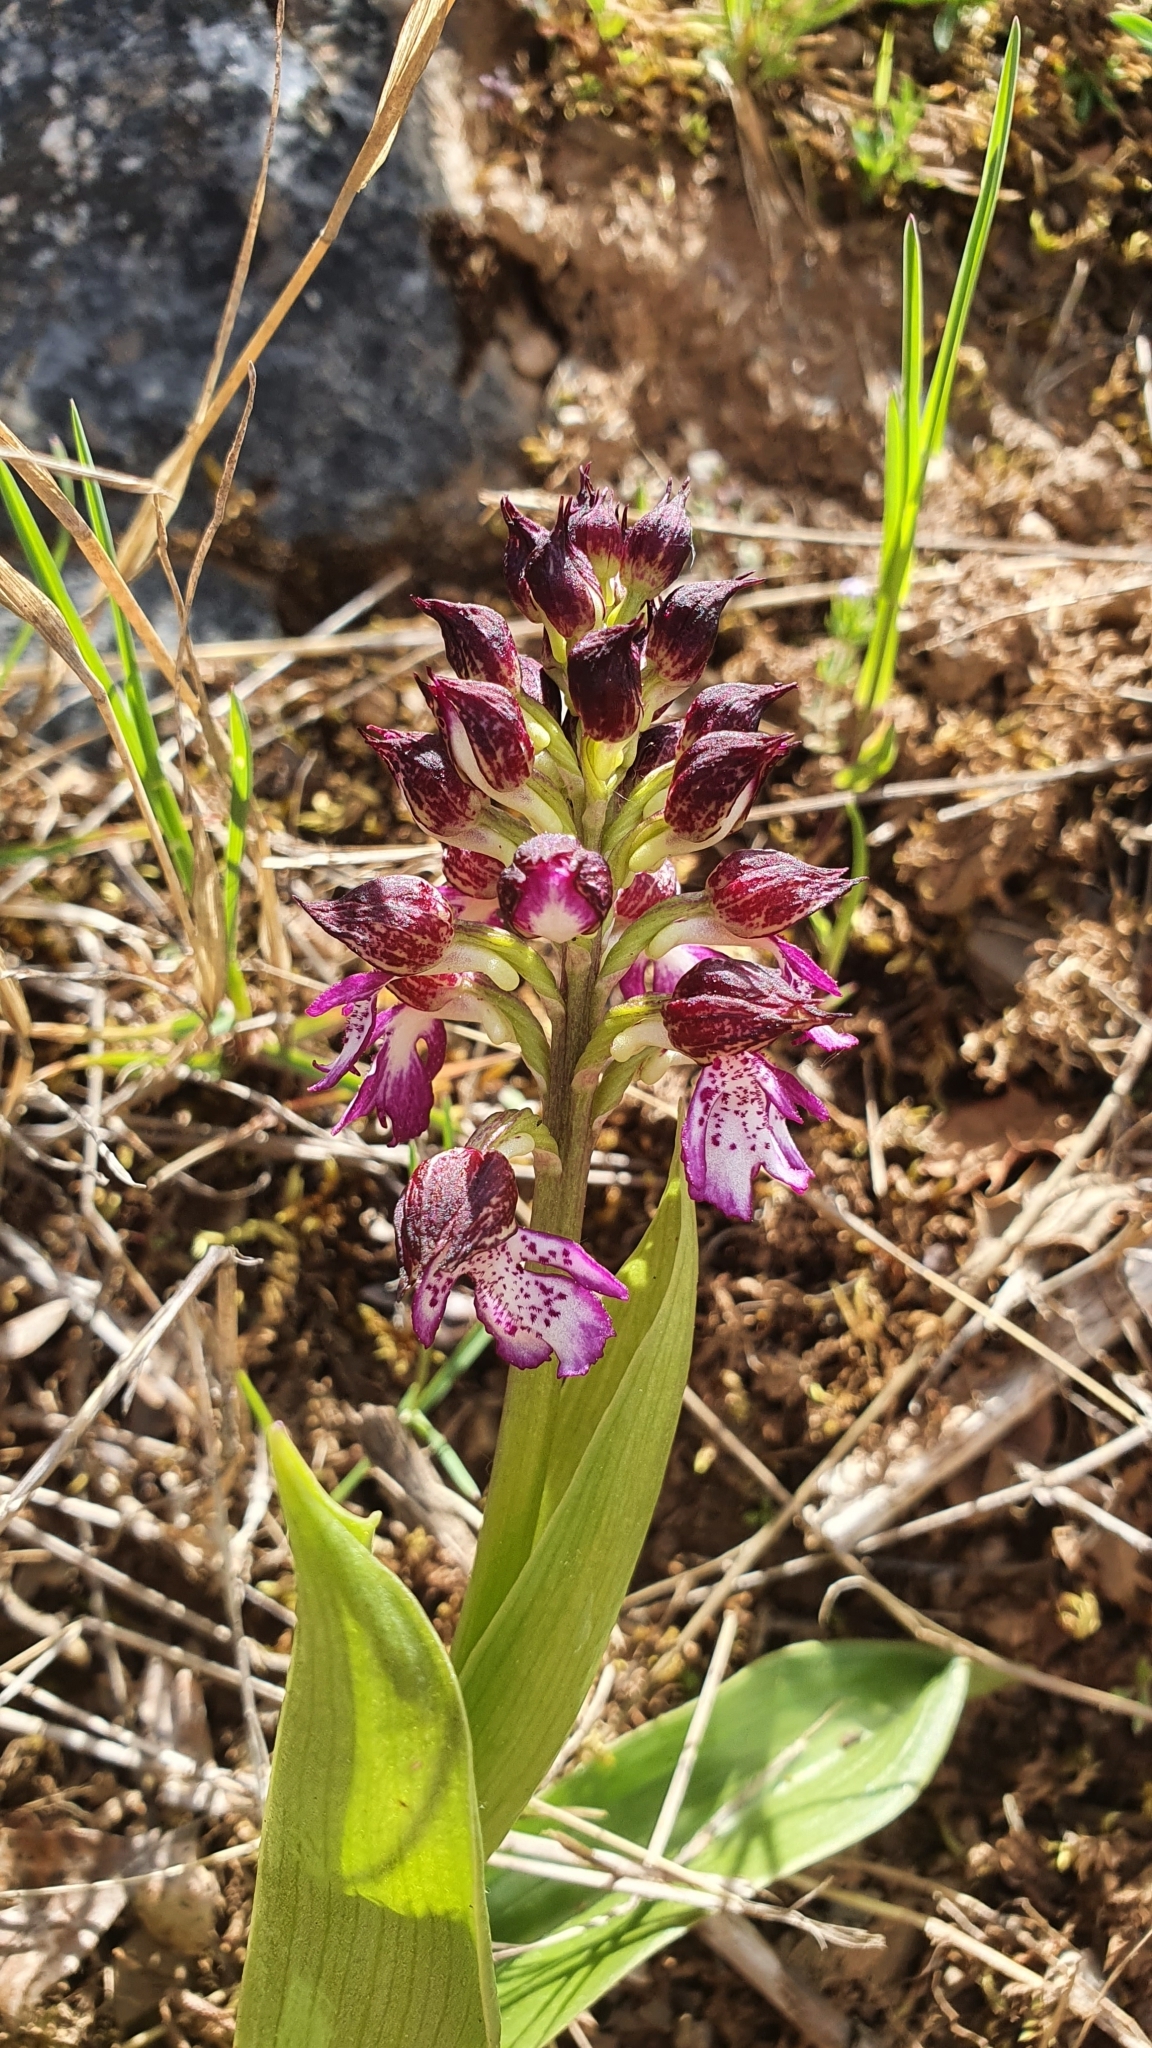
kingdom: Plantae
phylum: Tracheophyta
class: Liliopsida
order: Asparagales
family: Orchidaceae
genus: Orchis
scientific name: Orchis purpurea
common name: Lady orchid
